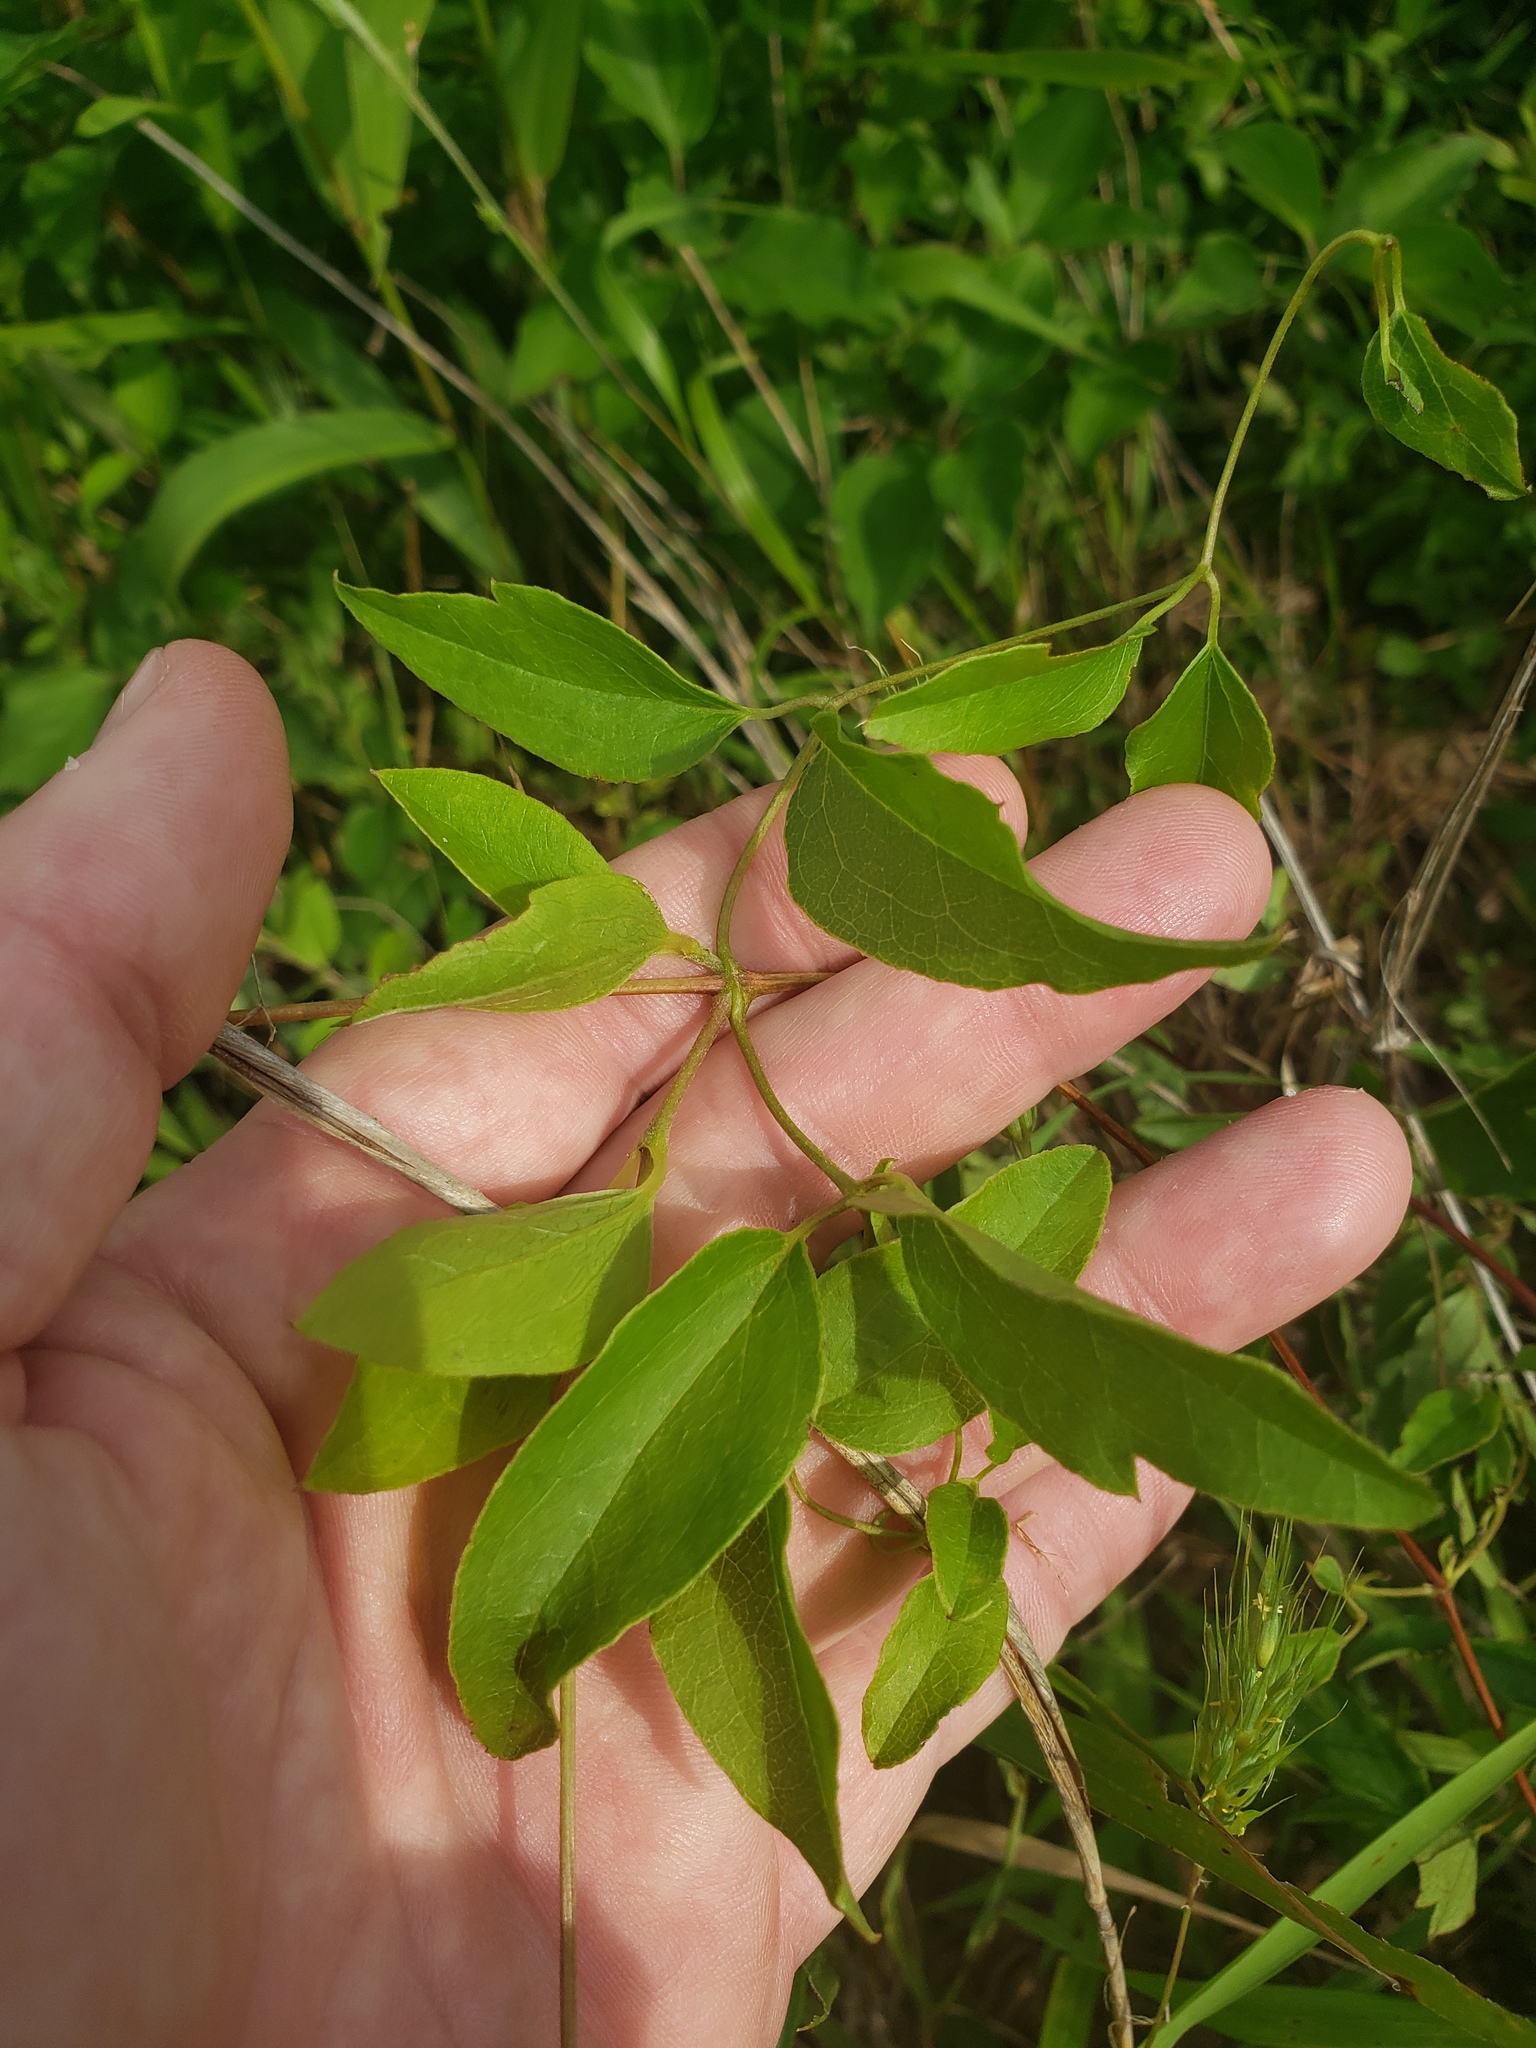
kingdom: Plantae
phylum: Tracheophyta
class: Magnoliopsida
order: Ranunculales
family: Ranunculaceae
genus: Clematis
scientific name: Clematis pitcheri
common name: Bellflower clematis
